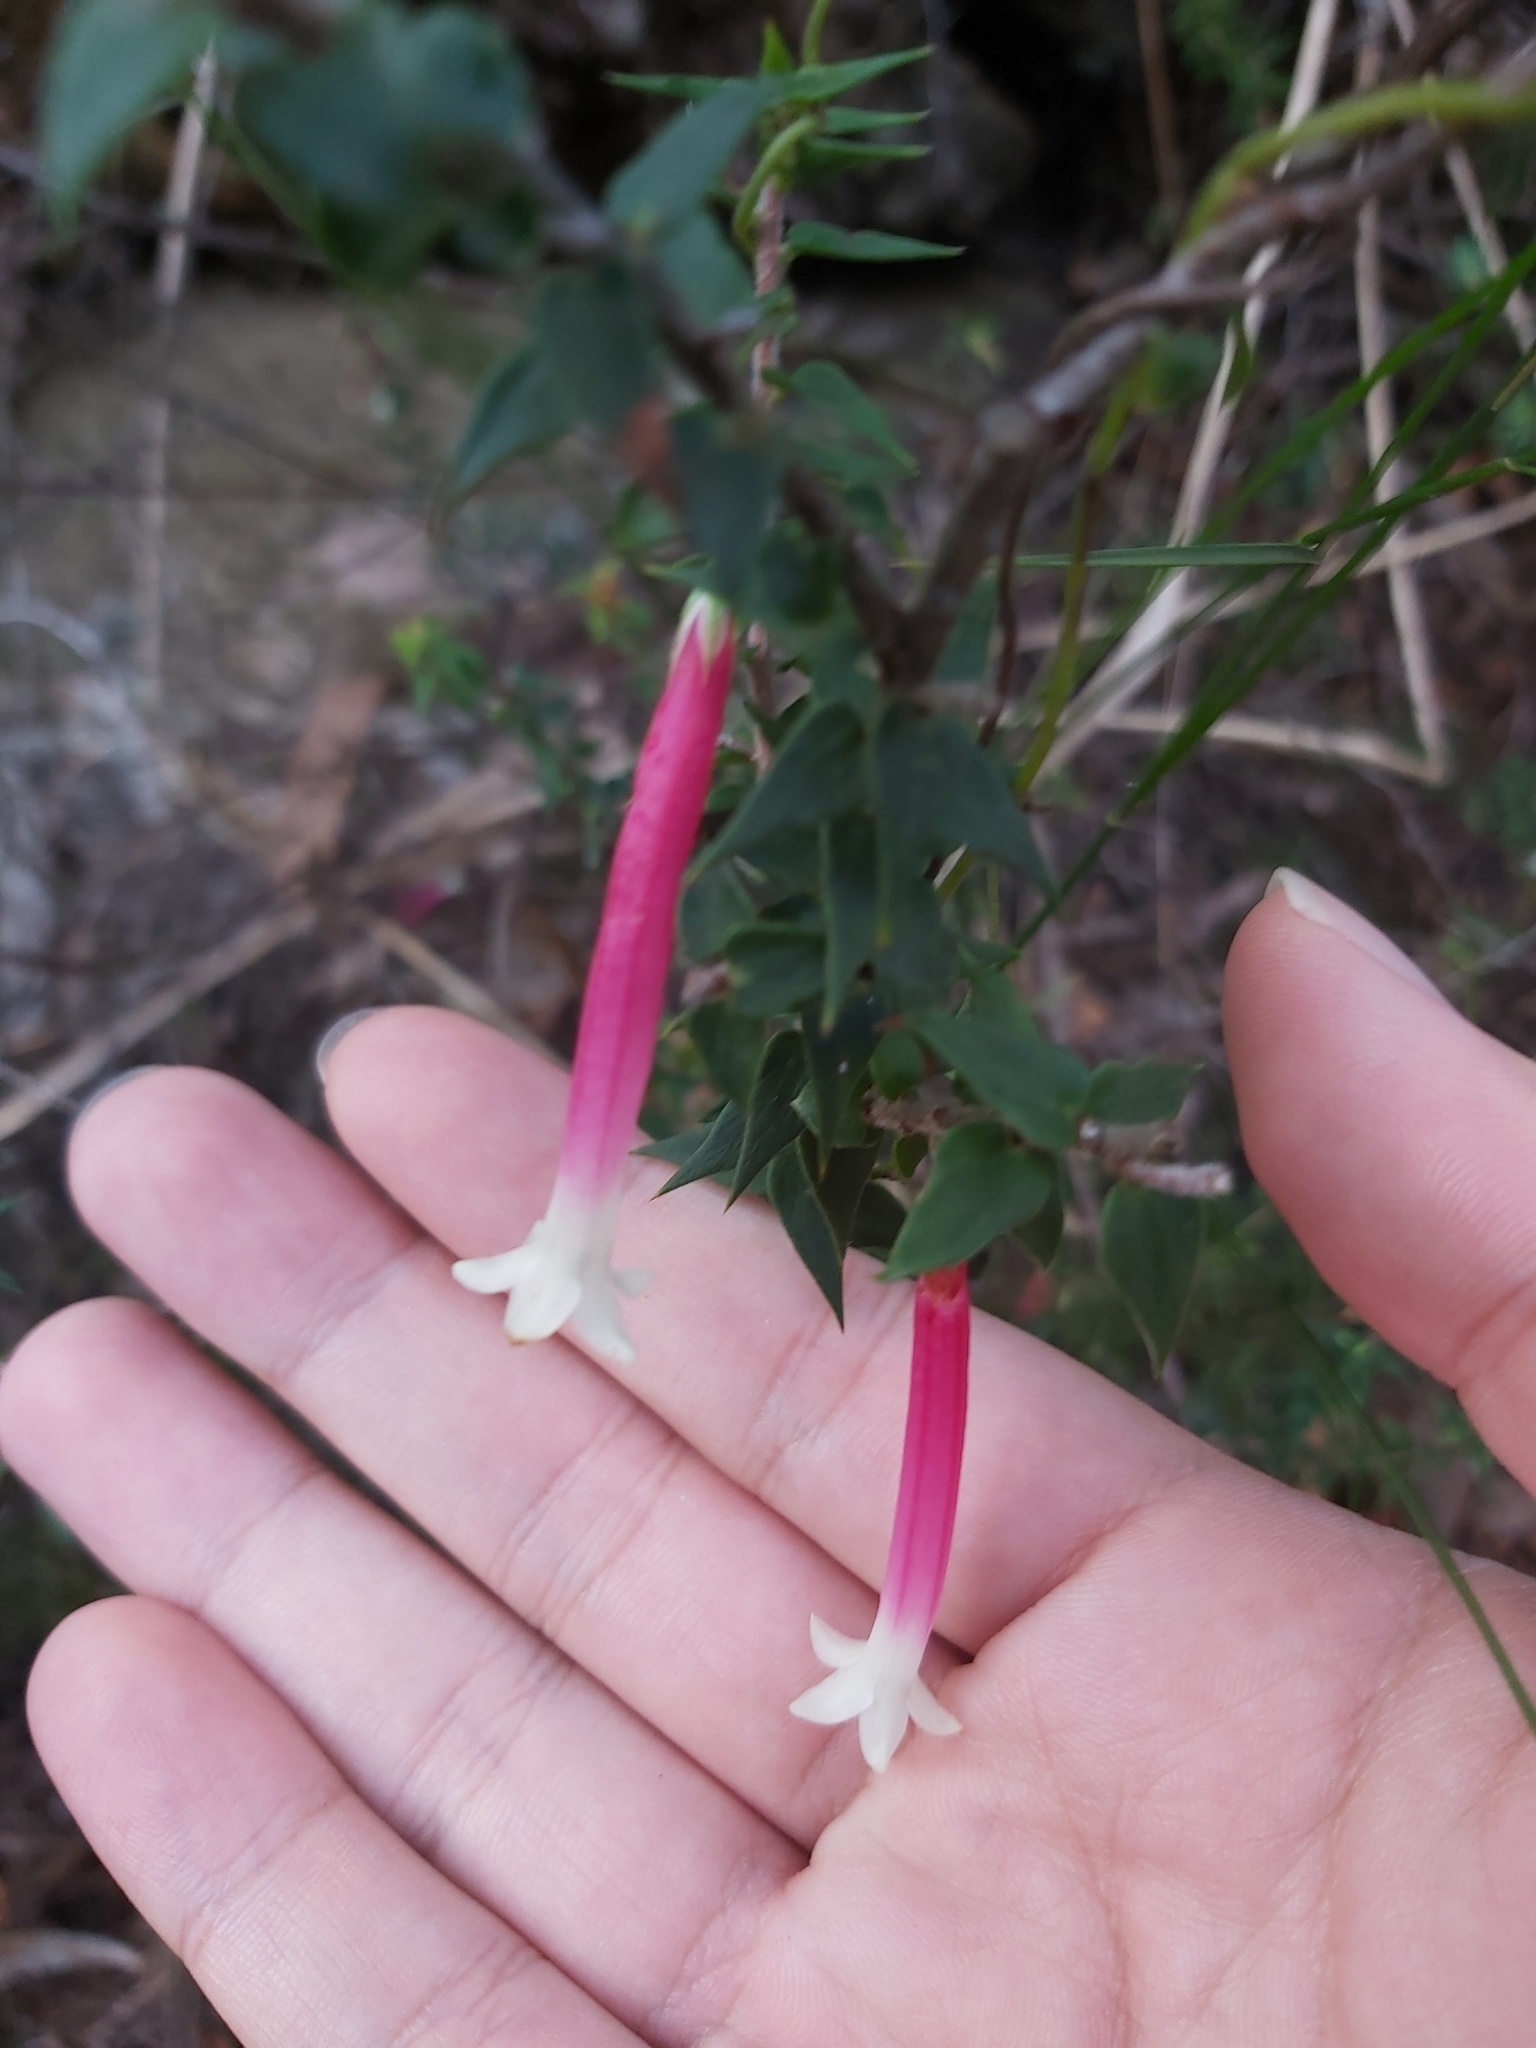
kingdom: Plantae
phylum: Tracheophyta
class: Magnoliopsida
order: Ericales
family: Ericaceae
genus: Epacris
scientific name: Epacris longiflora
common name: Fuchsia-heath
